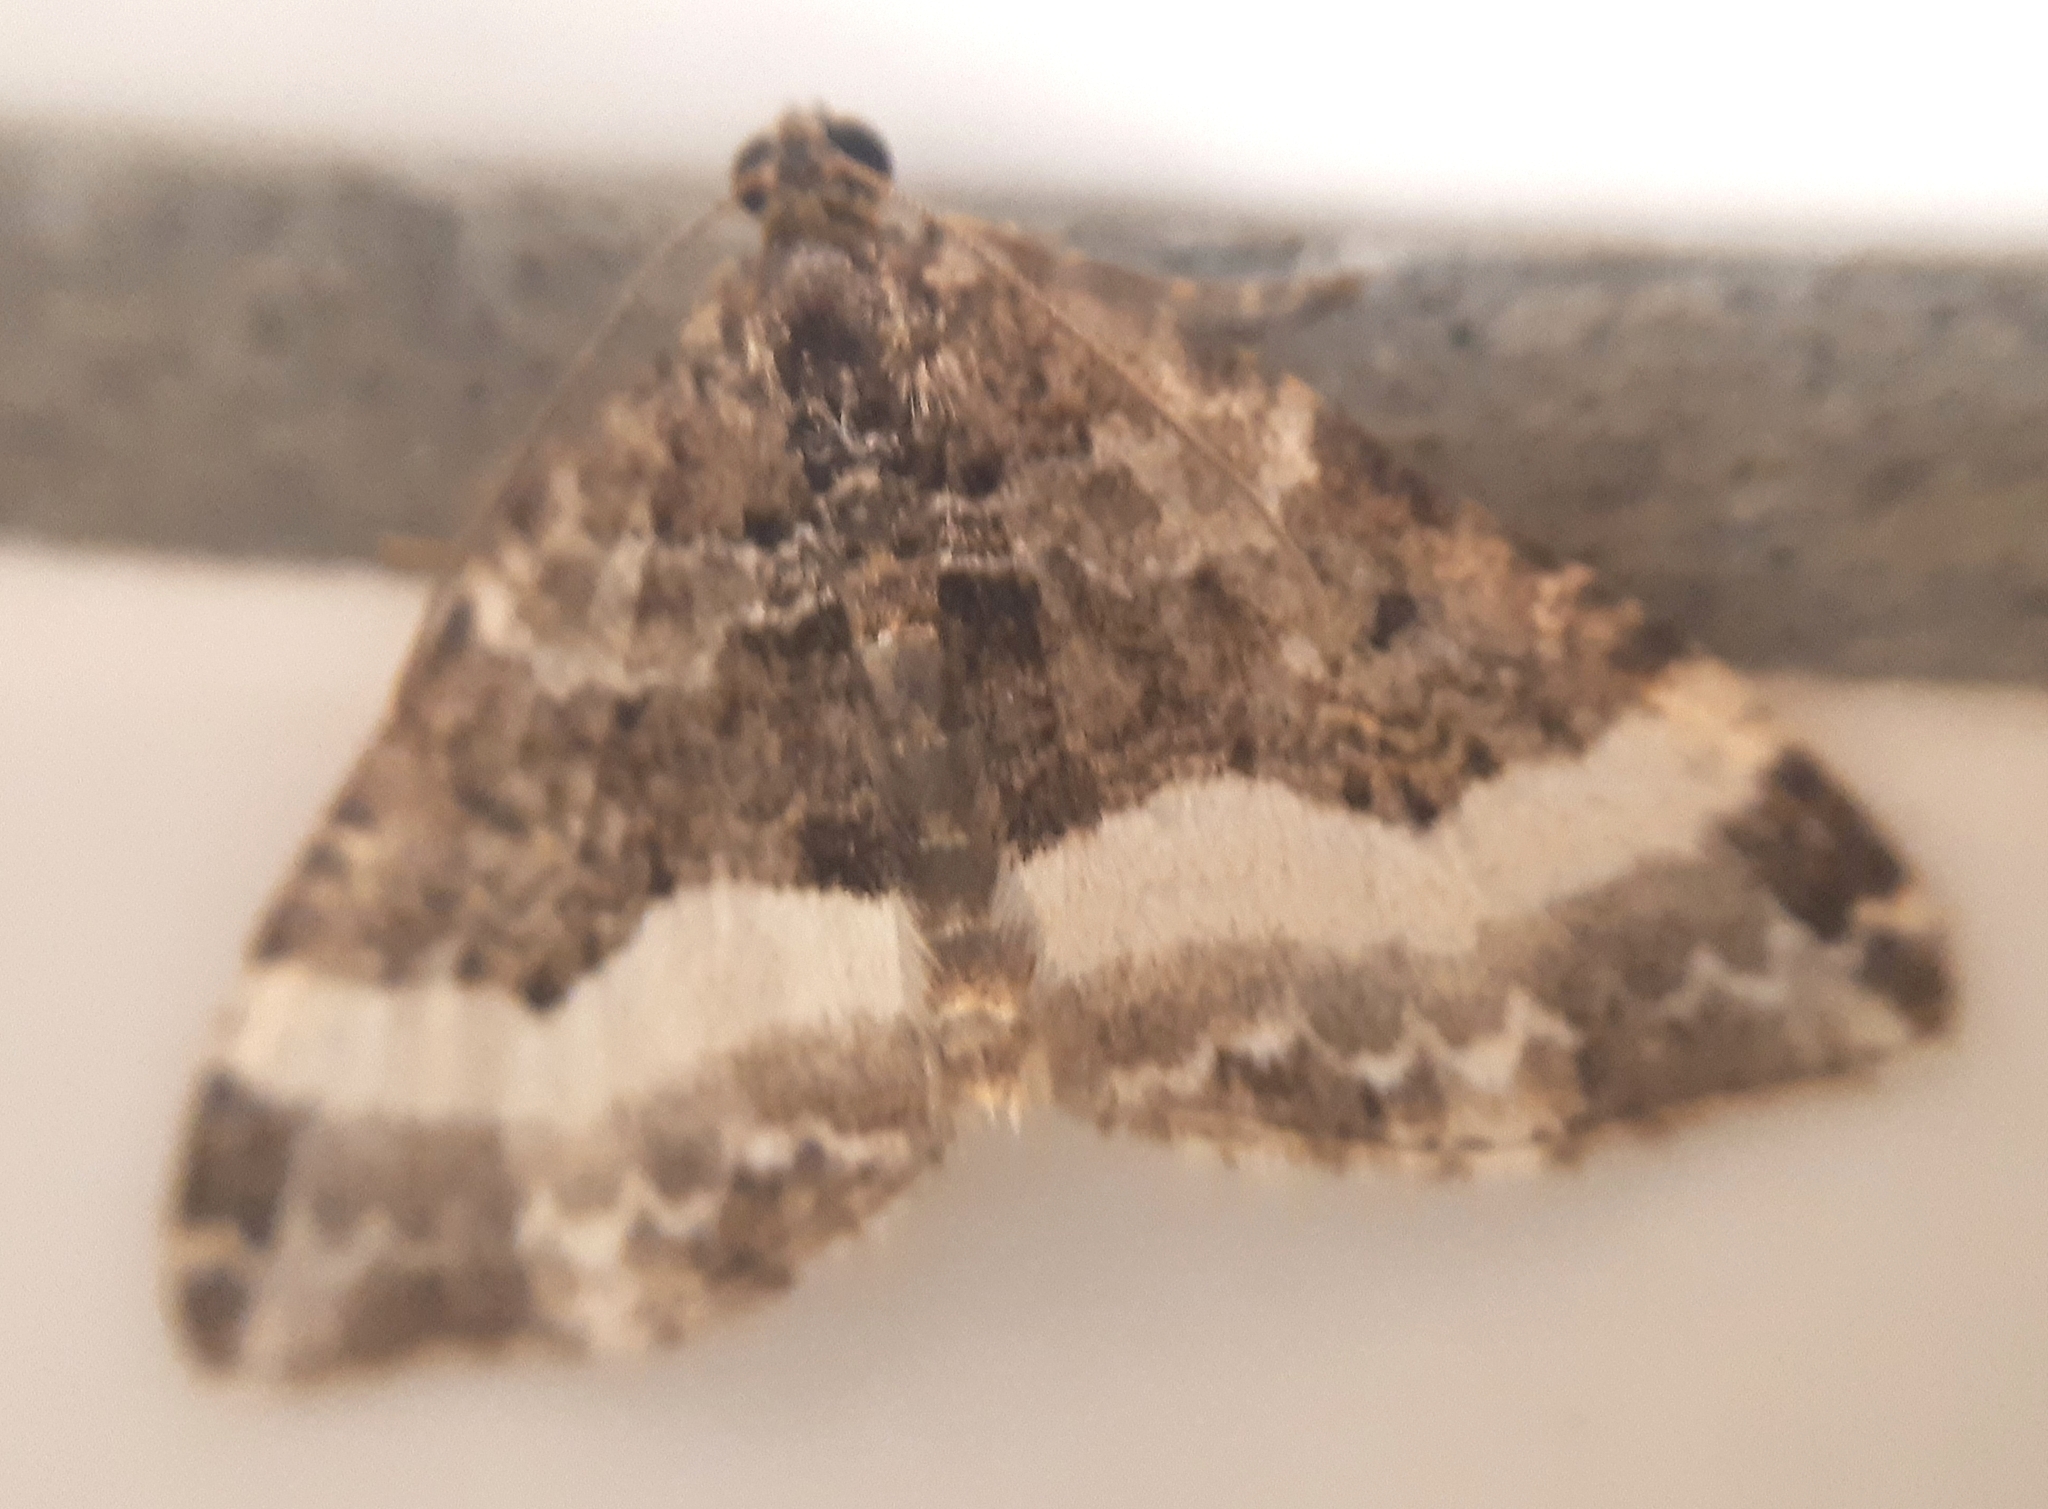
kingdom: Animalia
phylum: Arthropoda
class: Insecta
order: Lepidoptera
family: Geometridae
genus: Euphyia
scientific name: Euphyia unangulata
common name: Sharp-angled carpet
